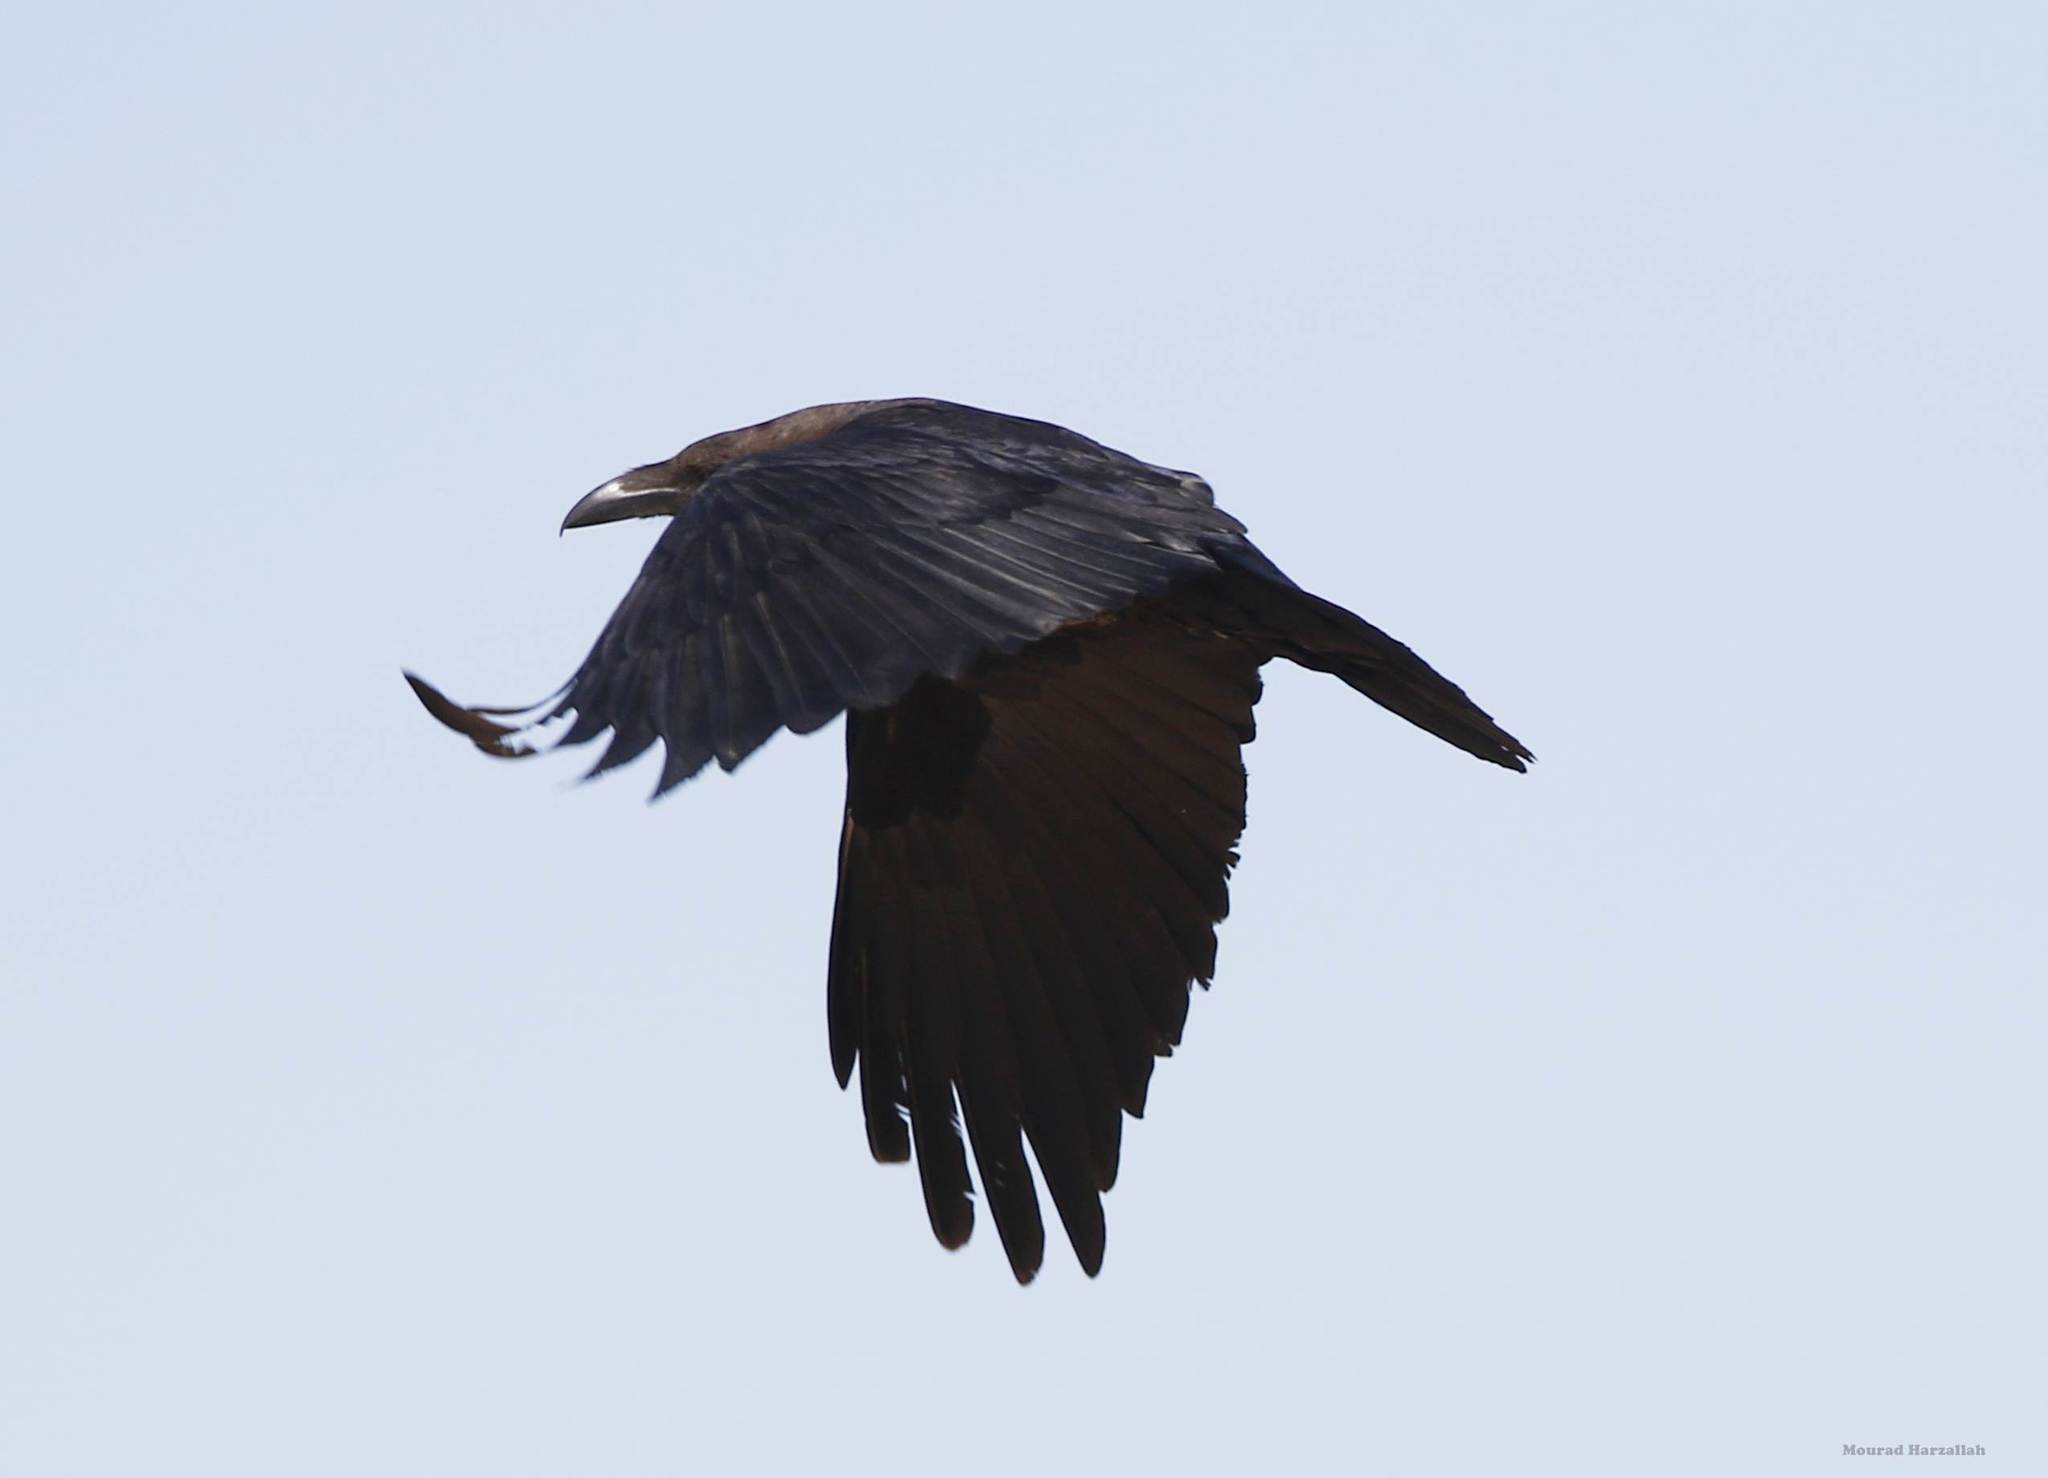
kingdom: Animalia
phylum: Chordata
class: Aves
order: Passeriformes
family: Corvidae
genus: Corvus
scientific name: Corvus ruficollis
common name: Brown-necked raven
